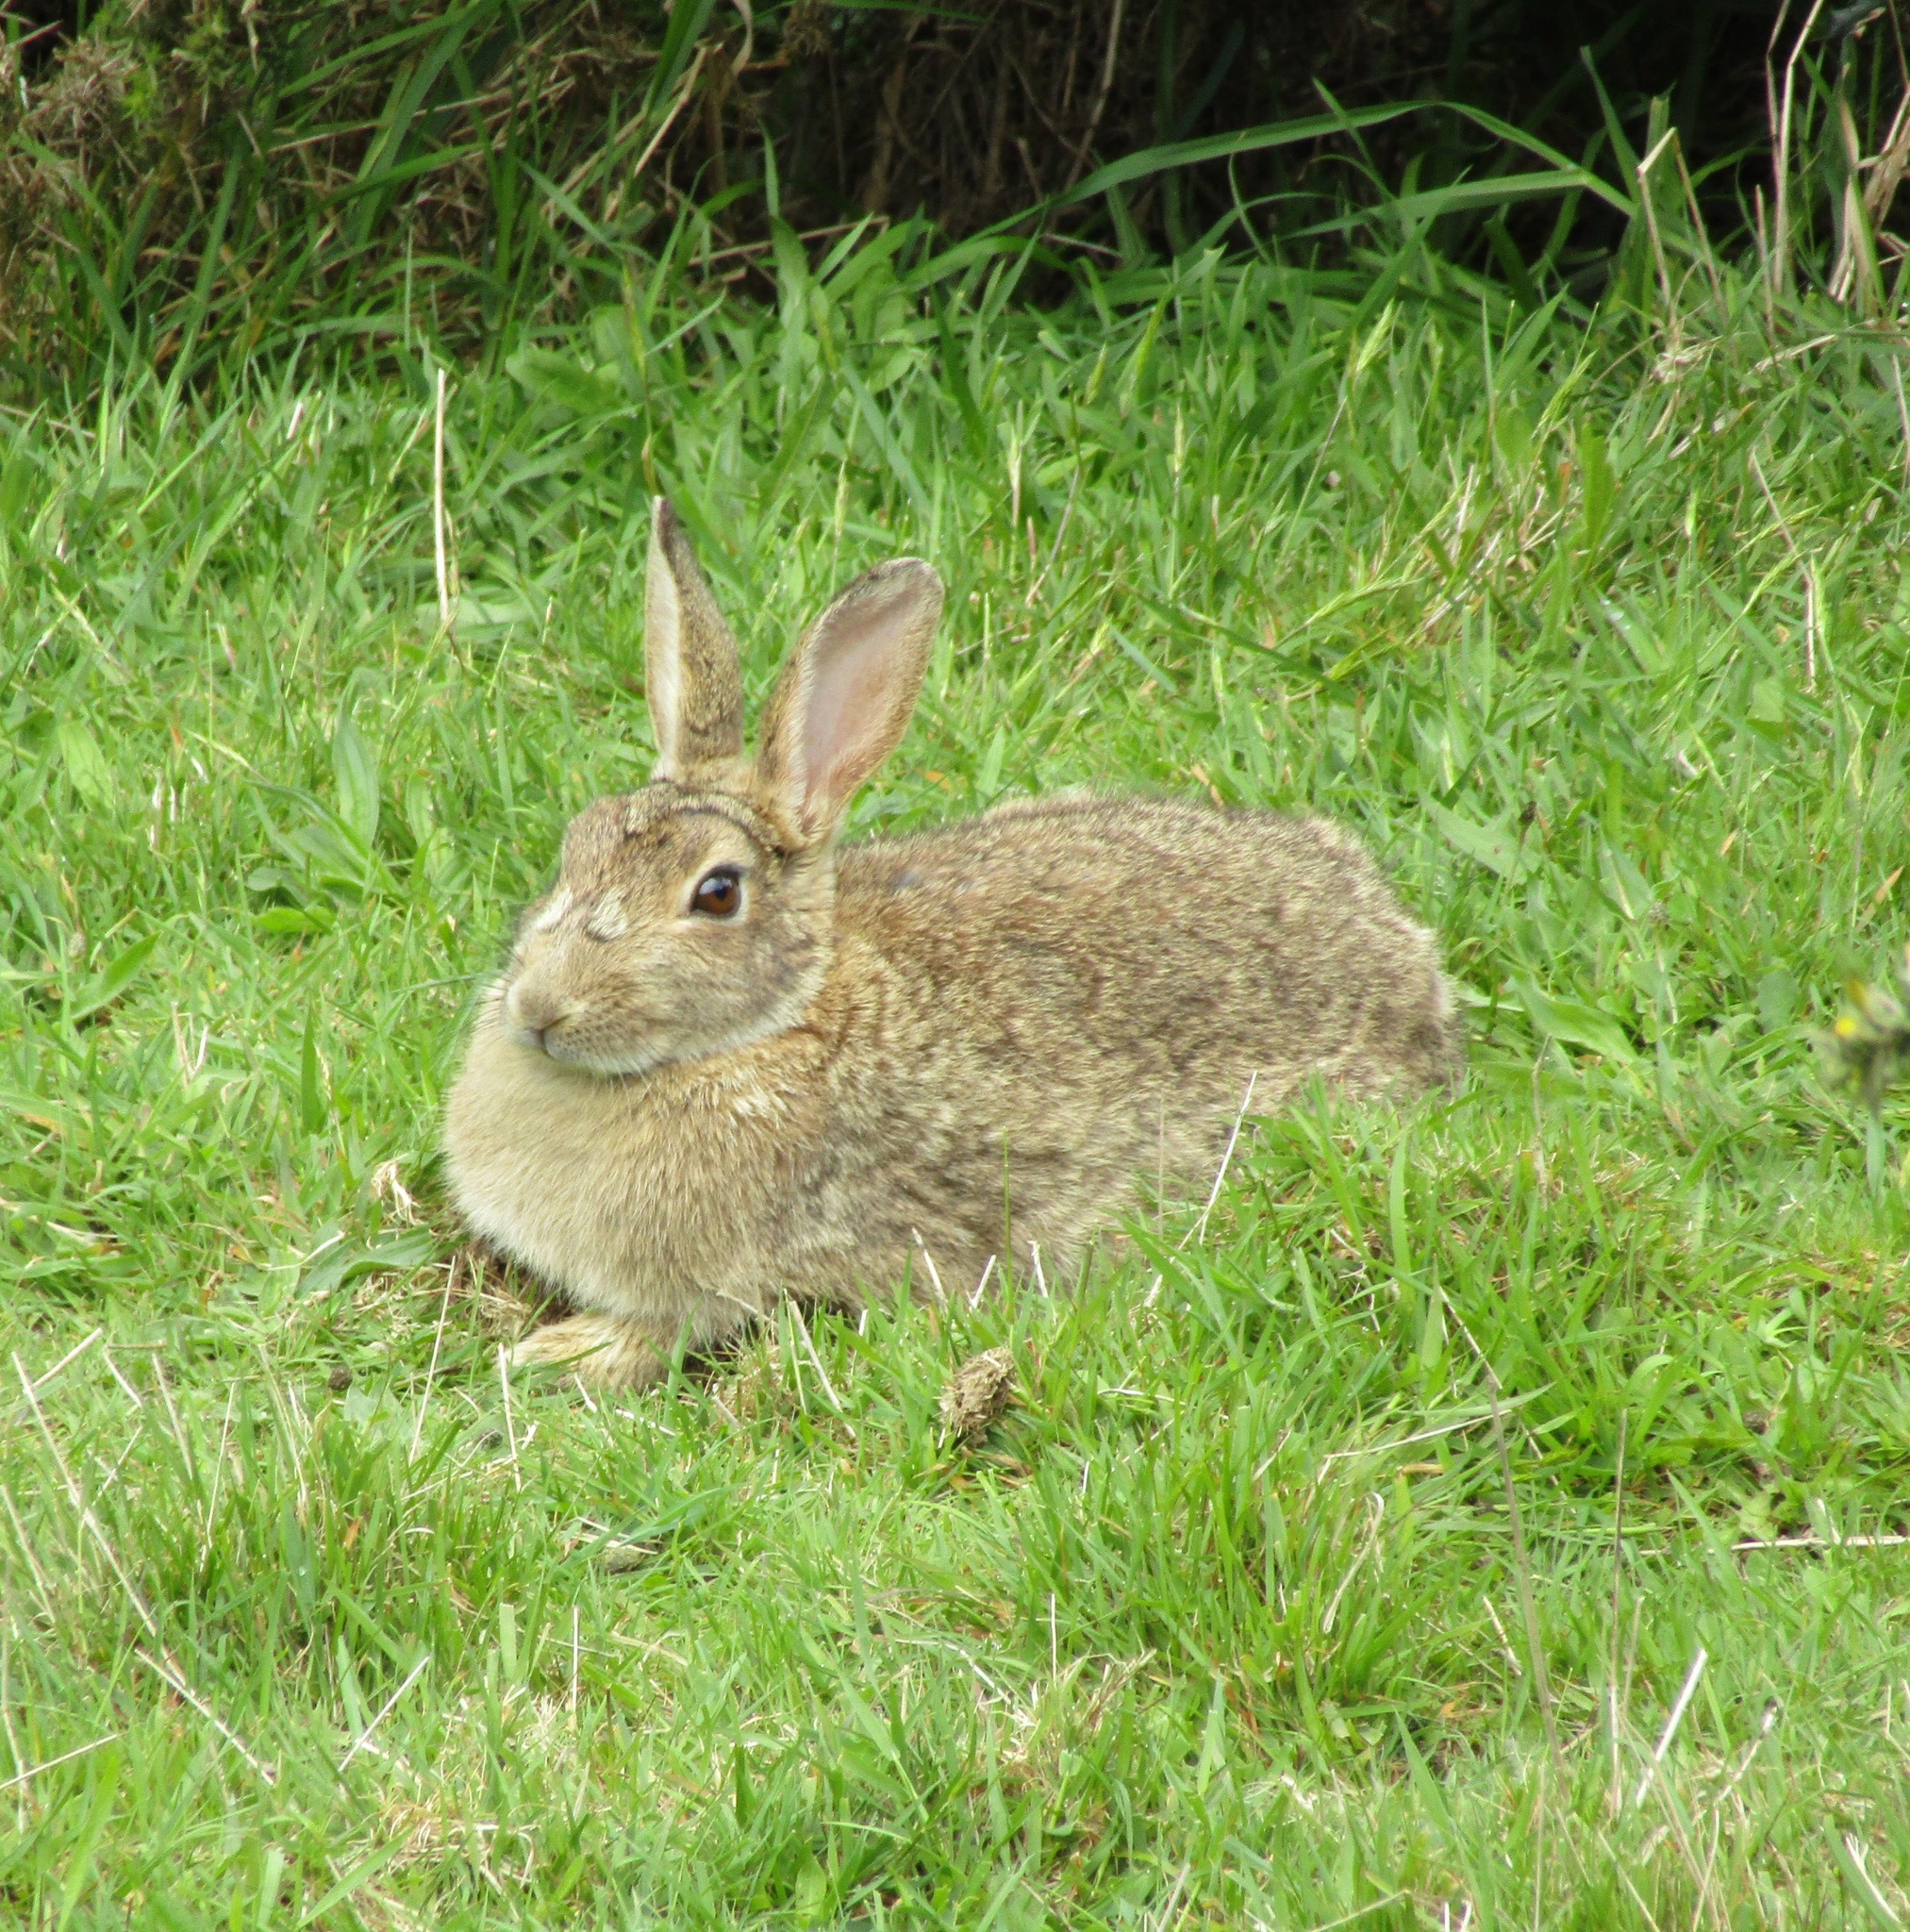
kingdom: Animalia
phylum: Chordata
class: Mammalia
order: Lagomorpha
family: Leporidae
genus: Oryctolagus
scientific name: Oryctolagus cuniculus
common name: European rabbit
